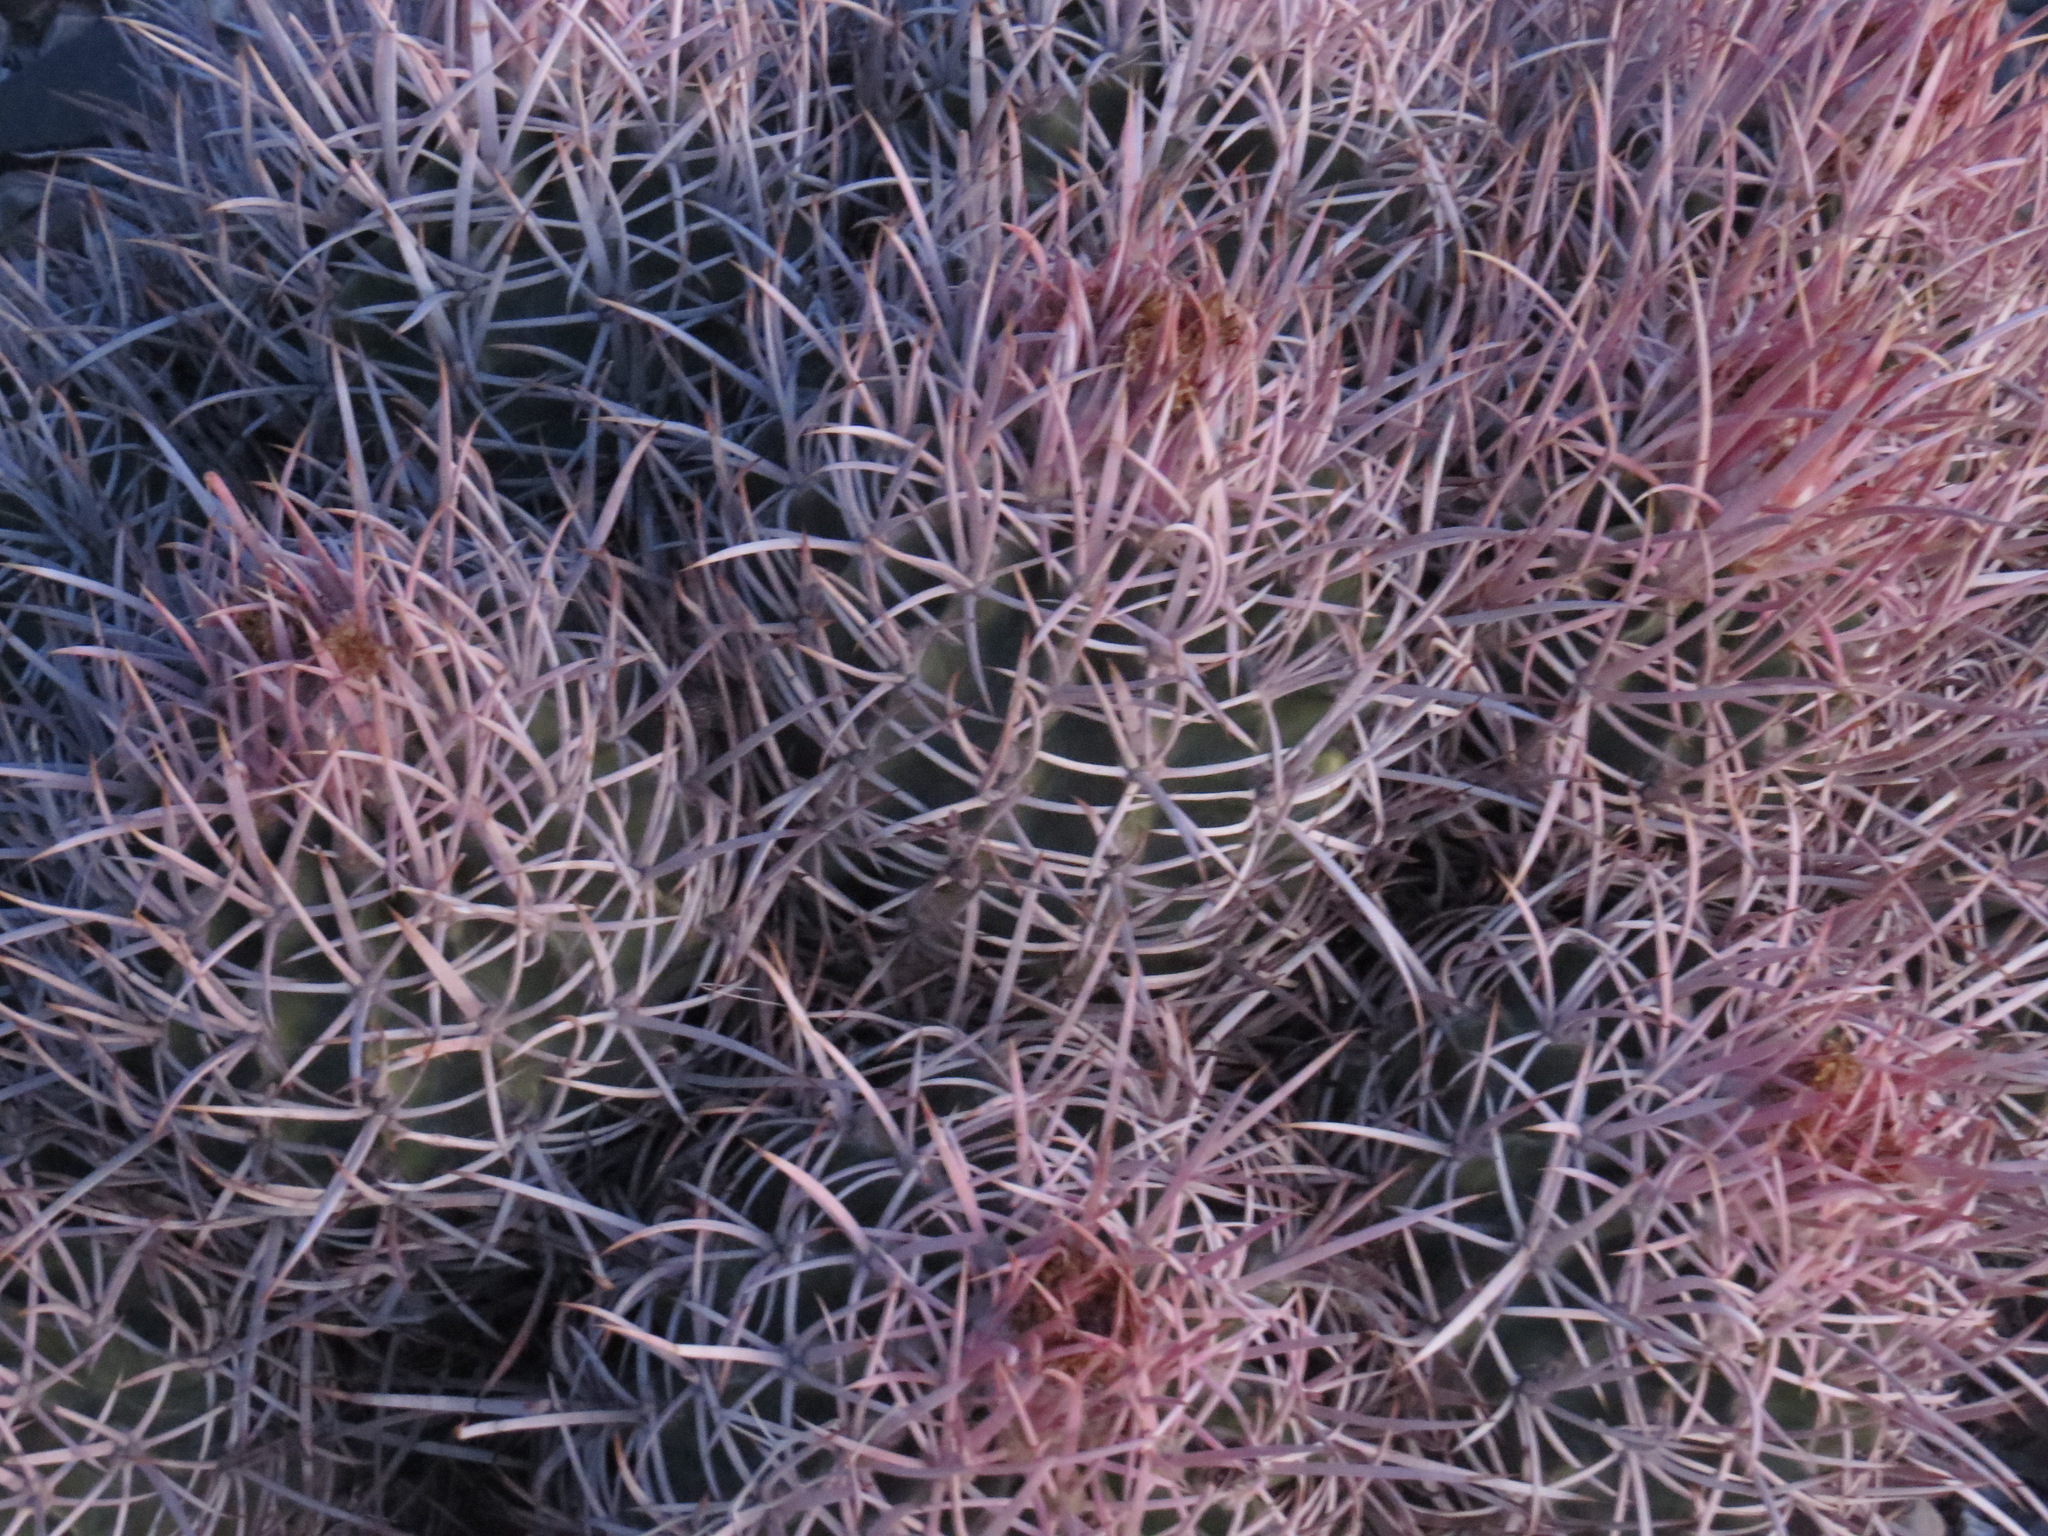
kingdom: Plantae
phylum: Tracheophyta
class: Magnoliopsida
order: Caryophyllales
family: Cactaceae
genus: Echinocactus
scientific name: Echinocactus polycephalus
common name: Cottontop cactus
